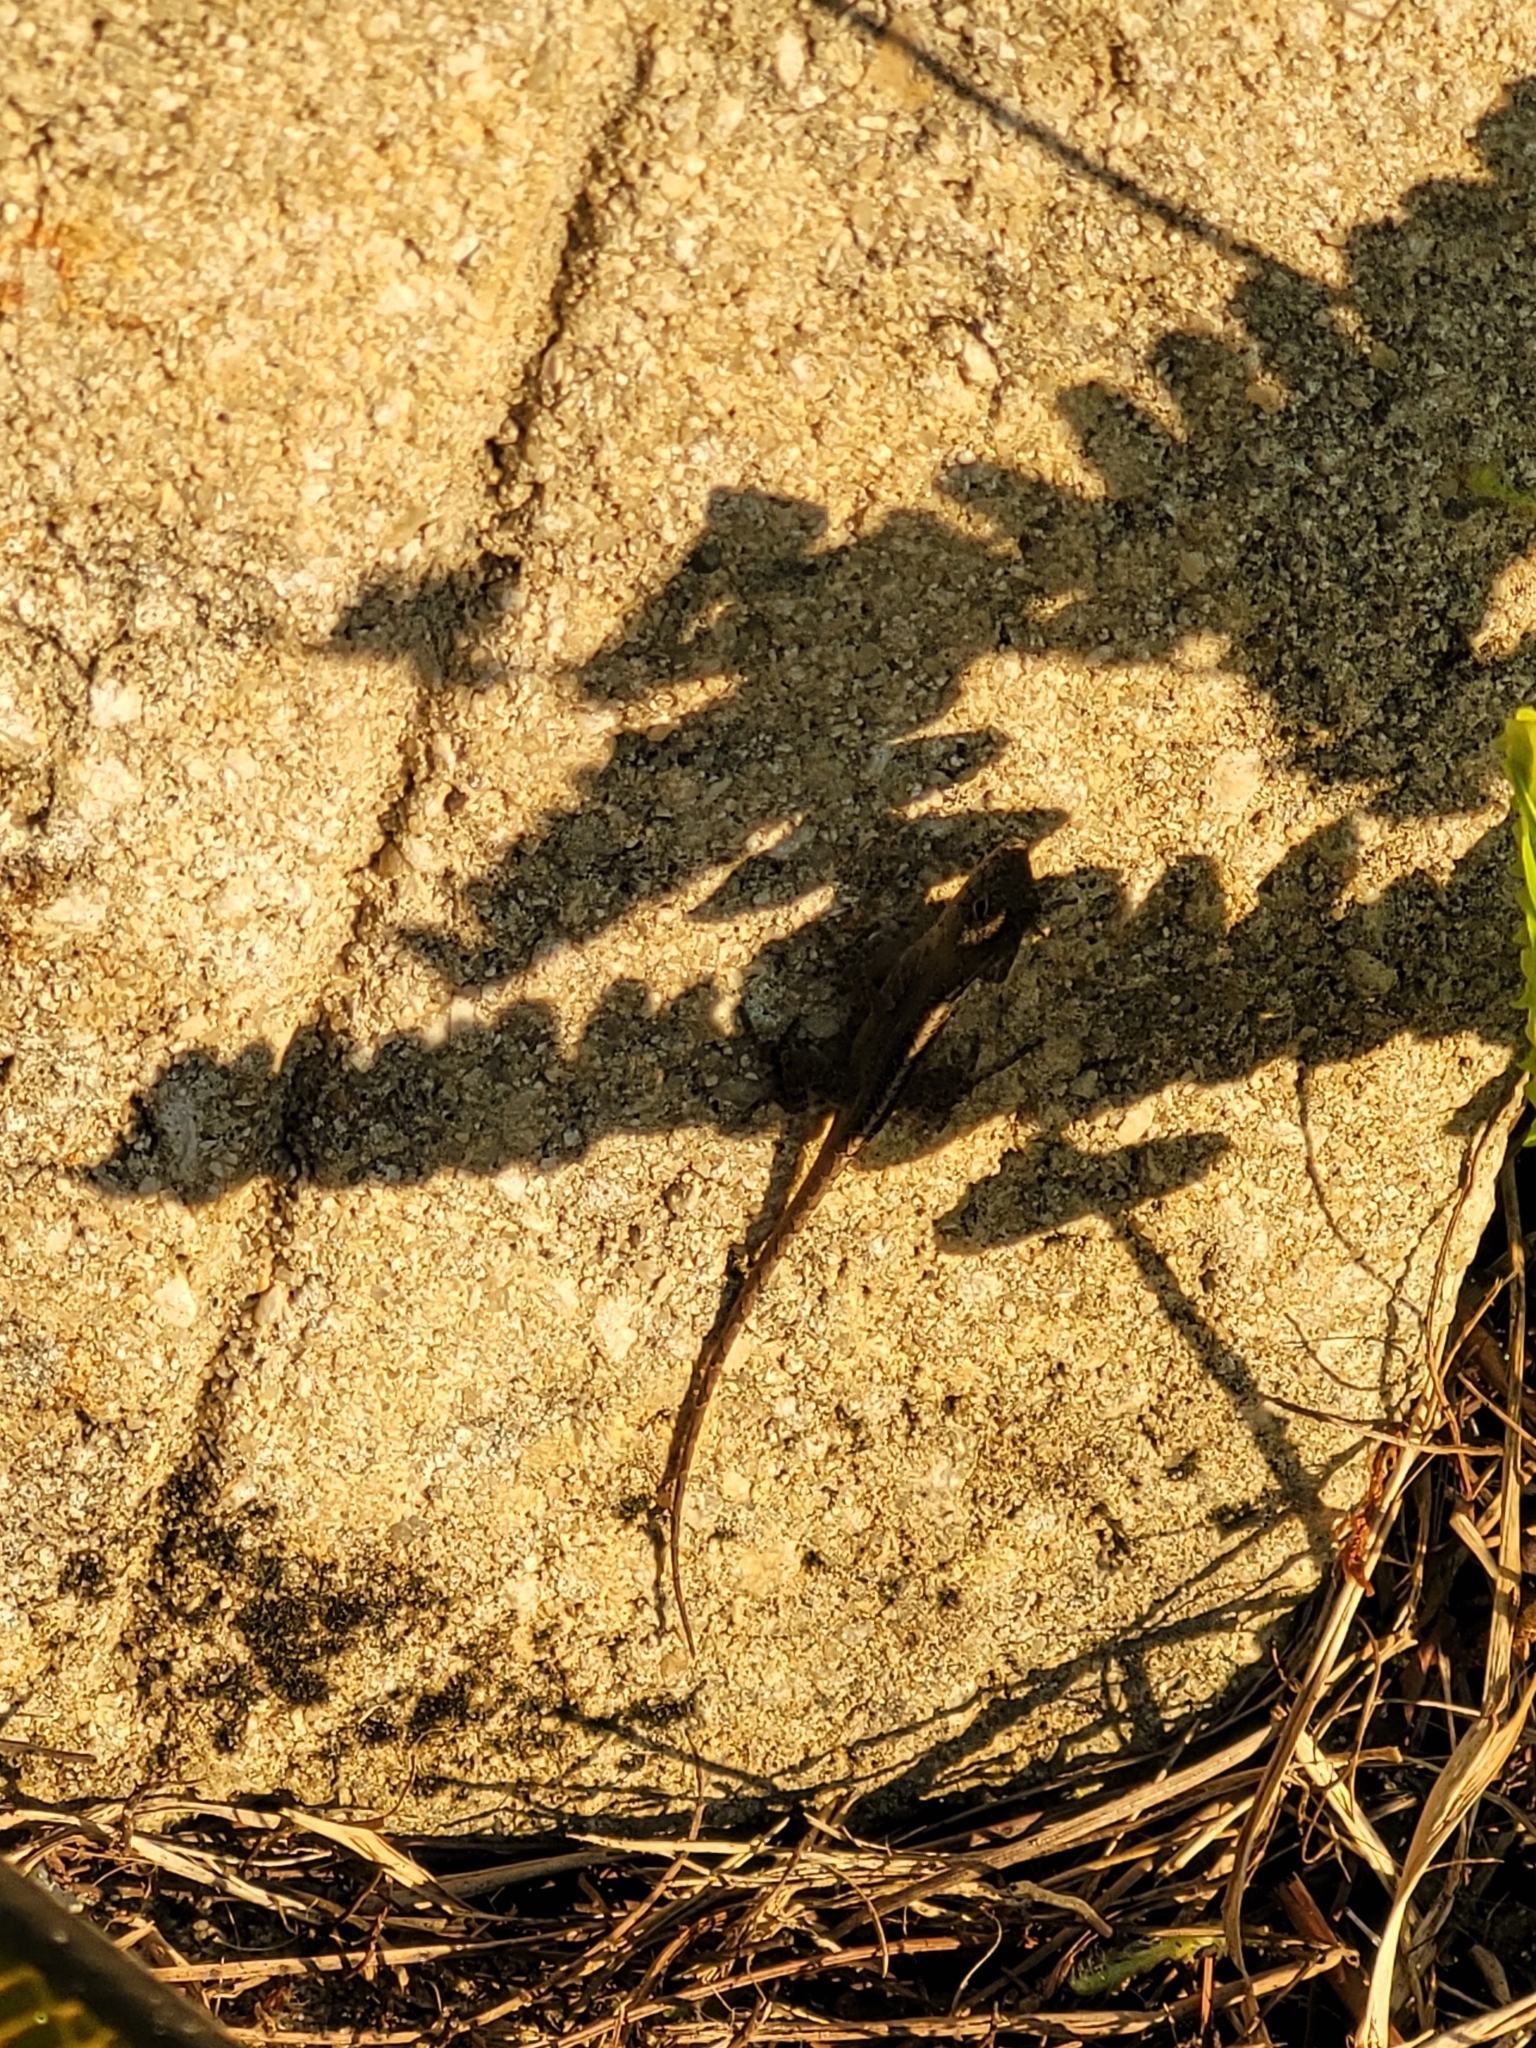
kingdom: Animalia
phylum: Chordata
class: Squamata
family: Dactyloidae
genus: Anolis
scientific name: Anolis sagrei
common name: Brown anole
